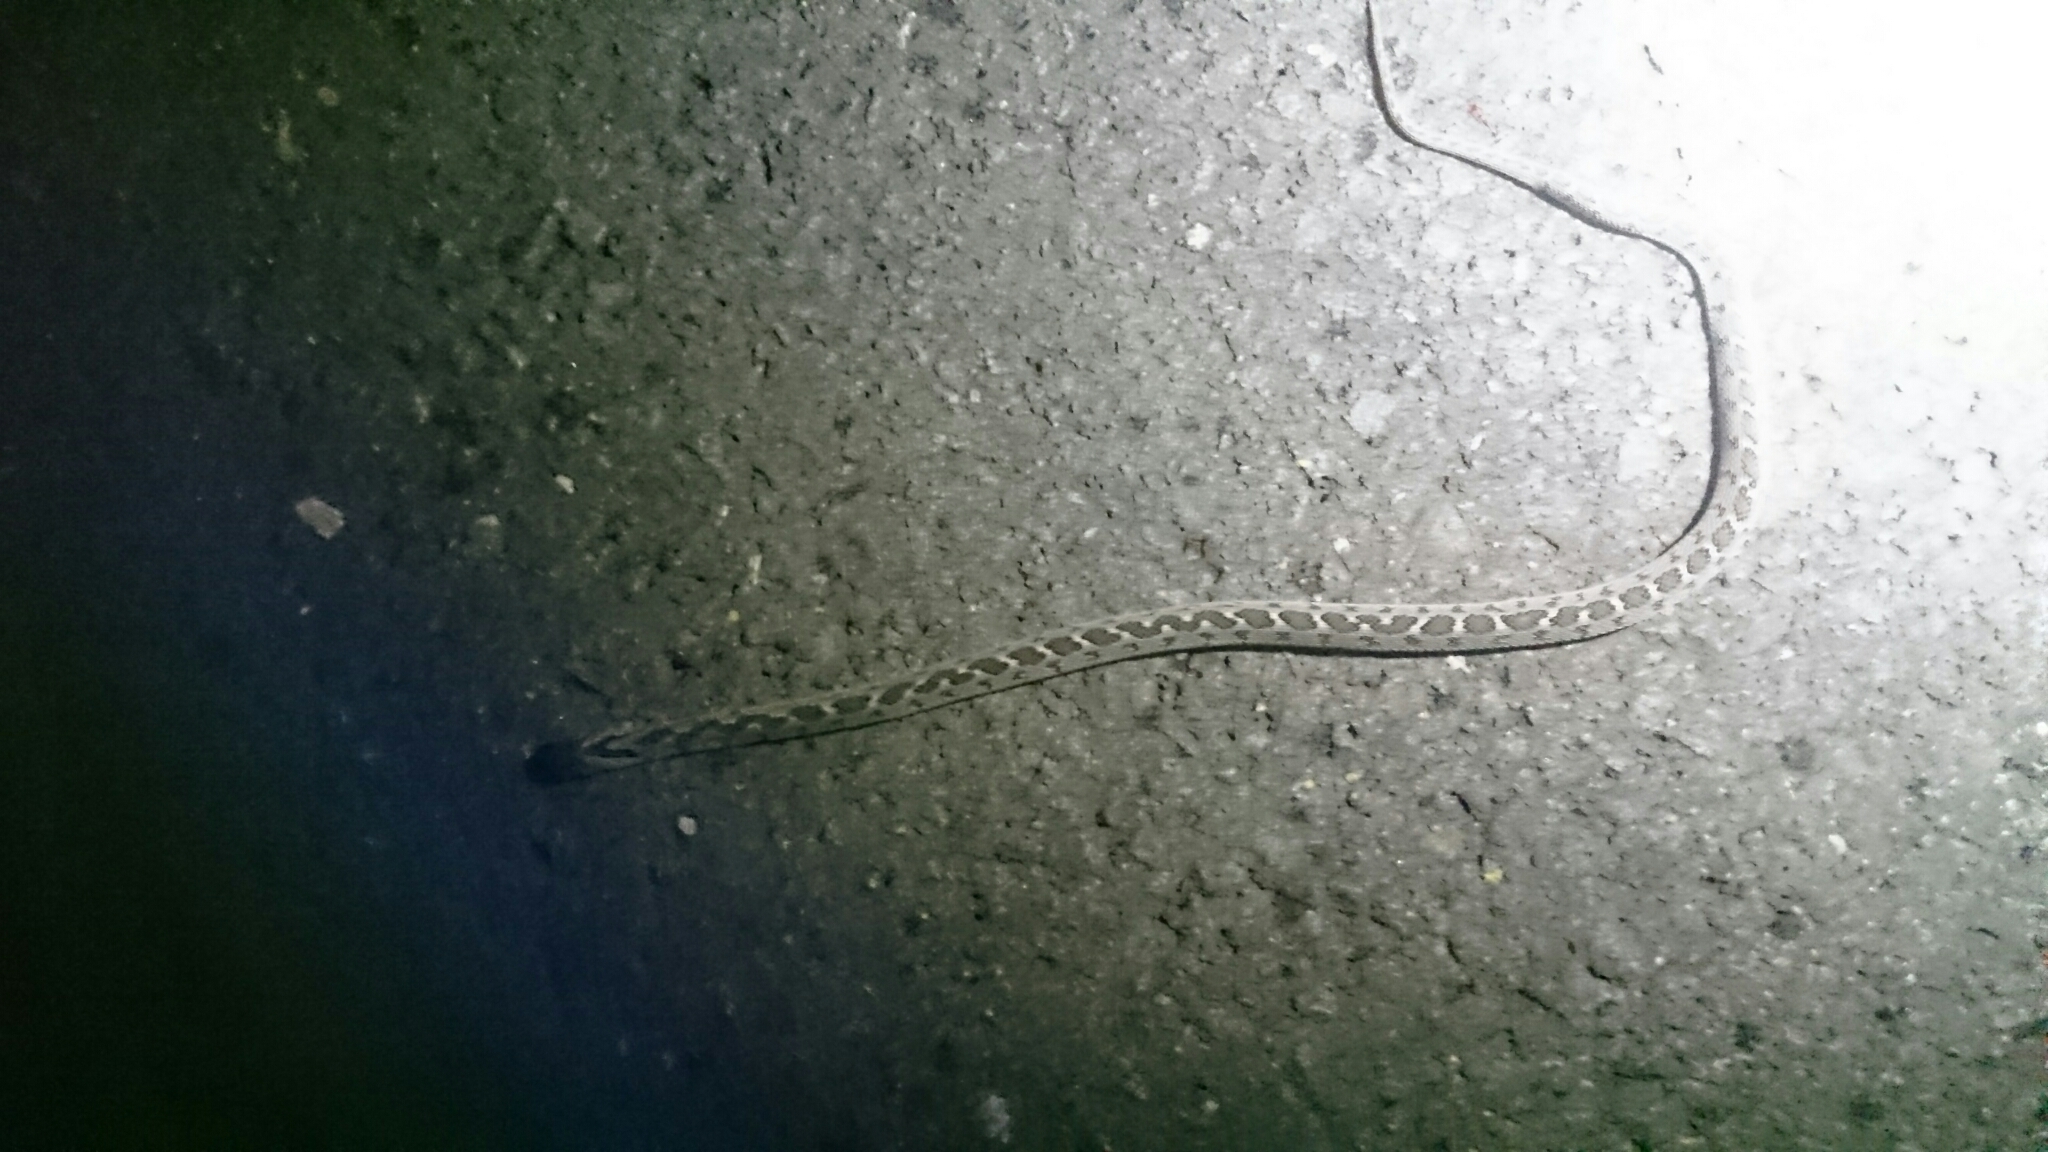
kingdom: Animalia
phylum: Chordata
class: Squamata
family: Colubridae
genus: Dasypeltis
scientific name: Dasypeltis scabra
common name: Common egg eater
